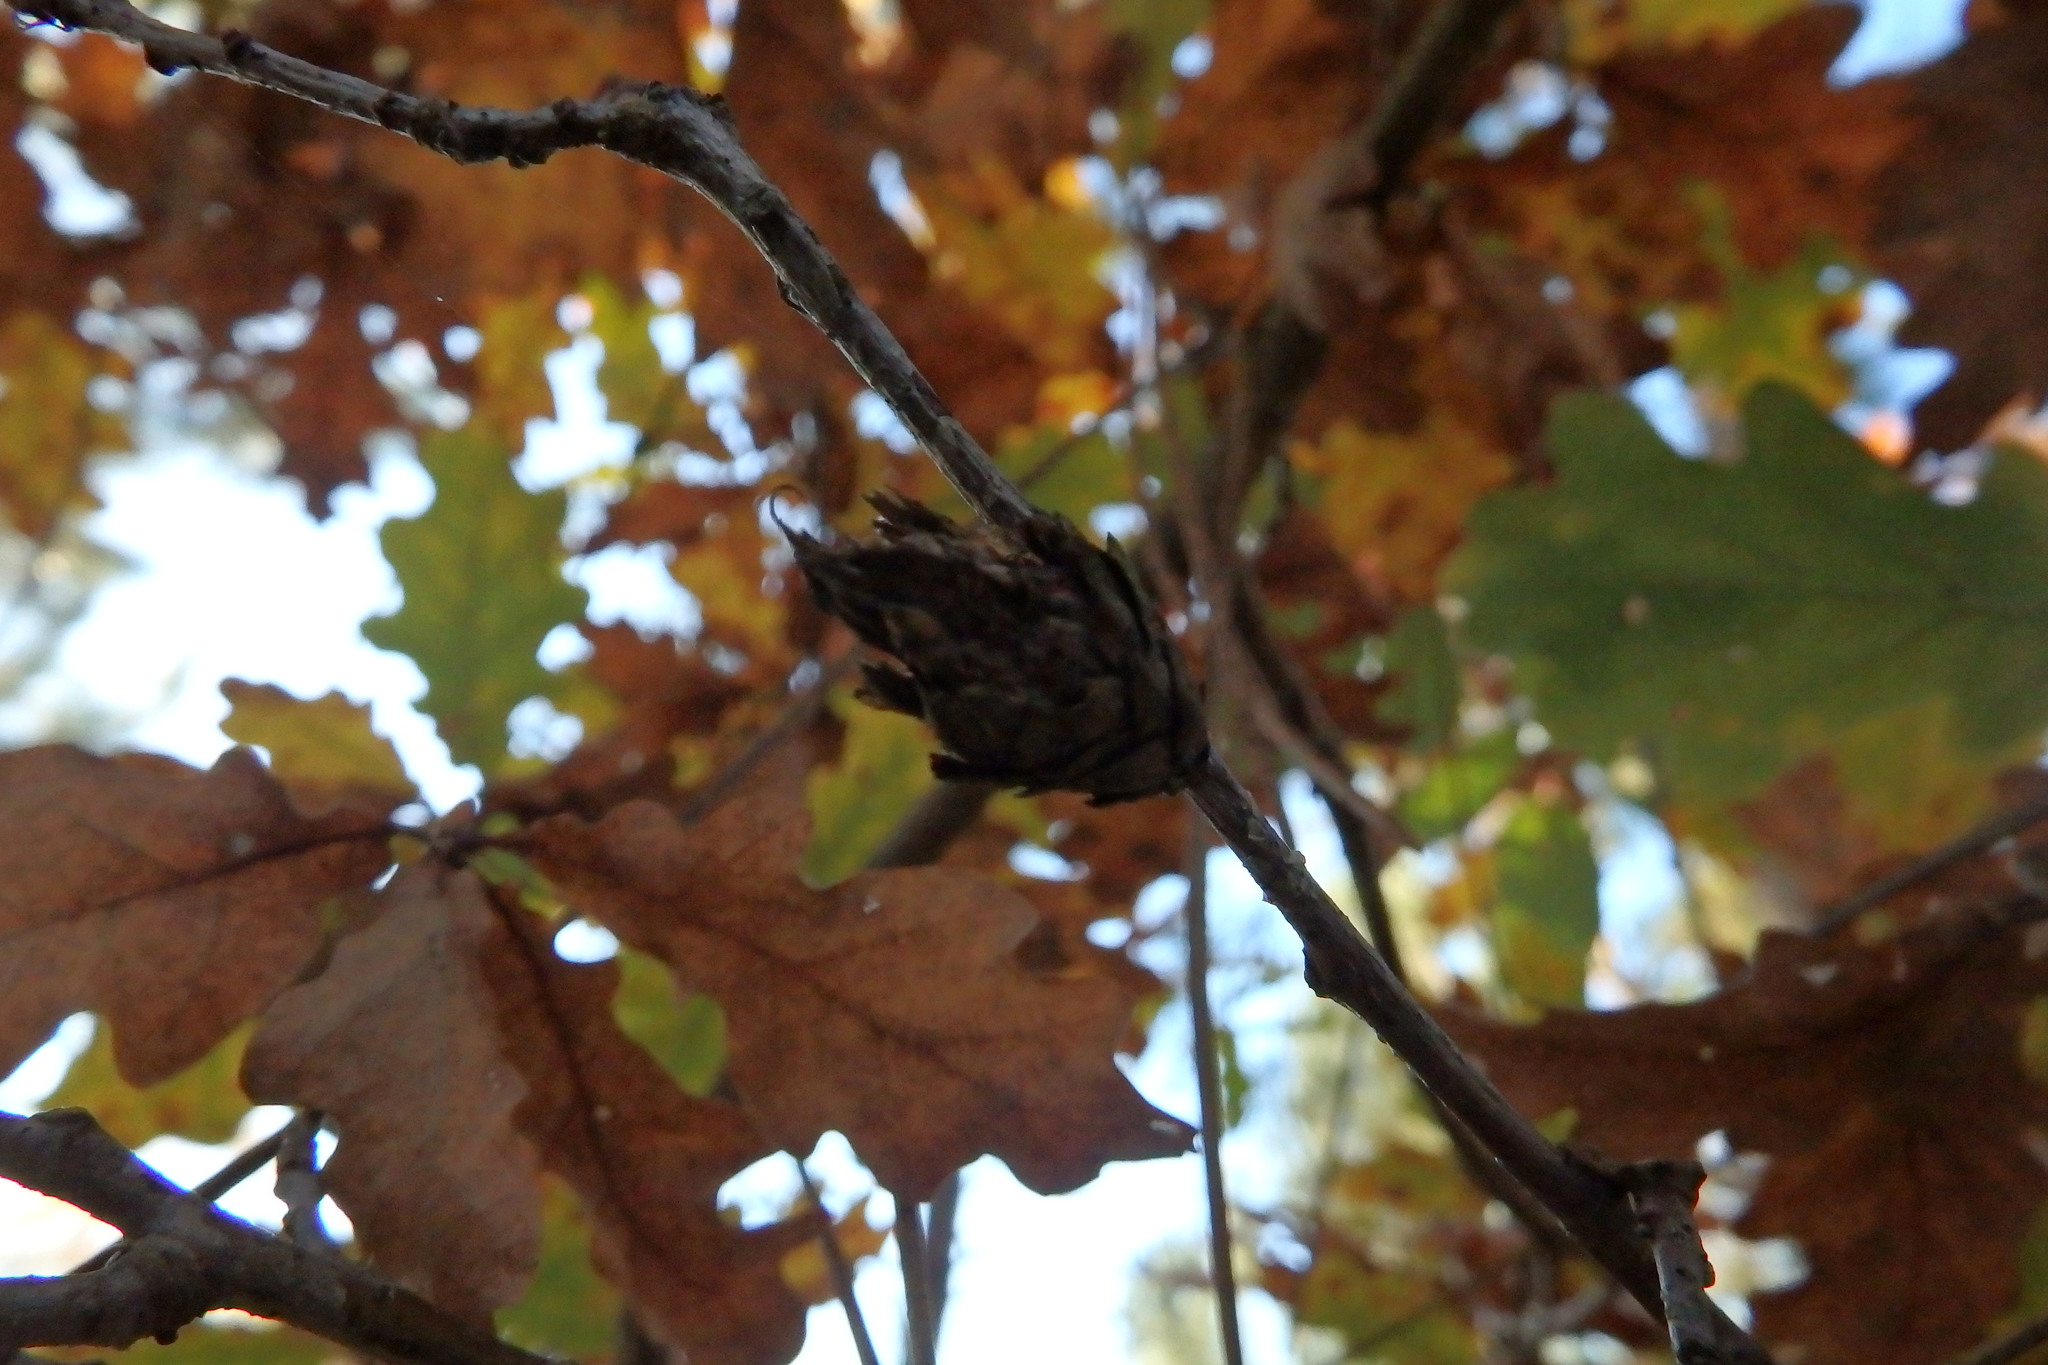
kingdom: Animalia
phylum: Arthropoda
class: Insecta
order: Hymenoptera
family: Cynipidae
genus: Andricus
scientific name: Andricus foecundatrix
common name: Artichoke gall
